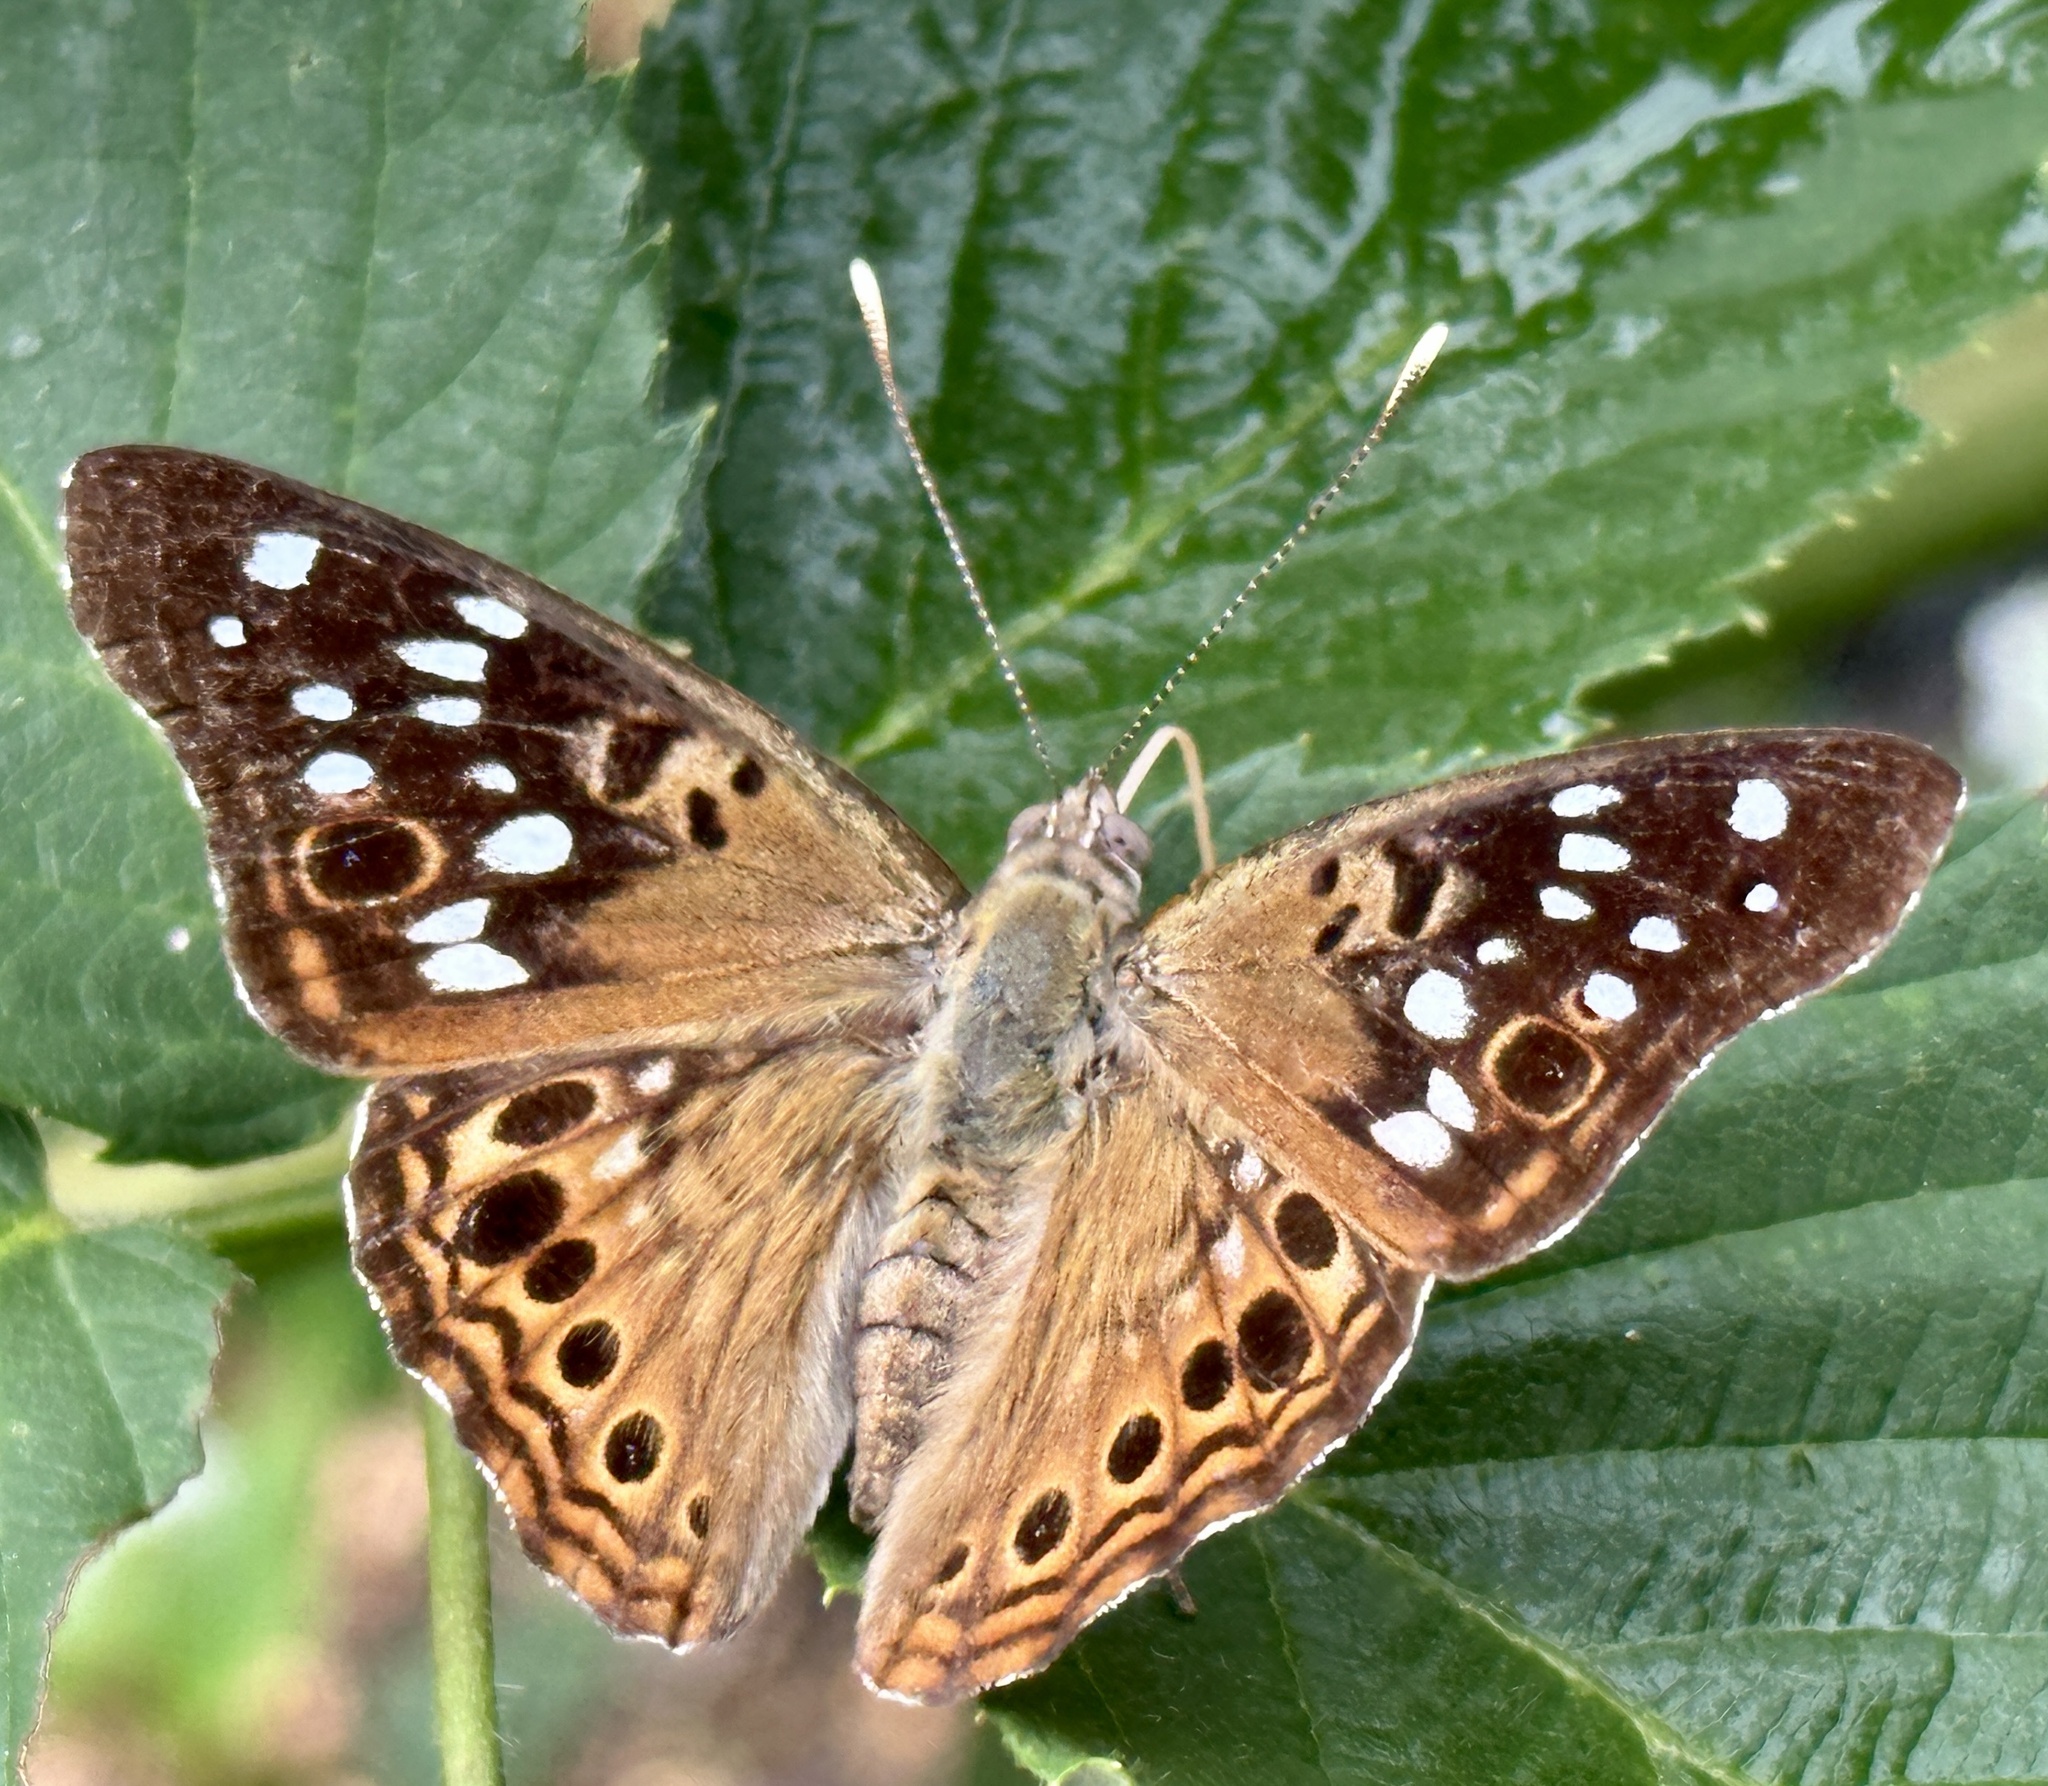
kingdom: Animalia
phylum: Arthropoda
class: Insecta
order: Lepidoptera
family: Nymphalidae
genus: Asterocampa
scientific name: Asterocampa celtis
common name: Hackberry emperor
